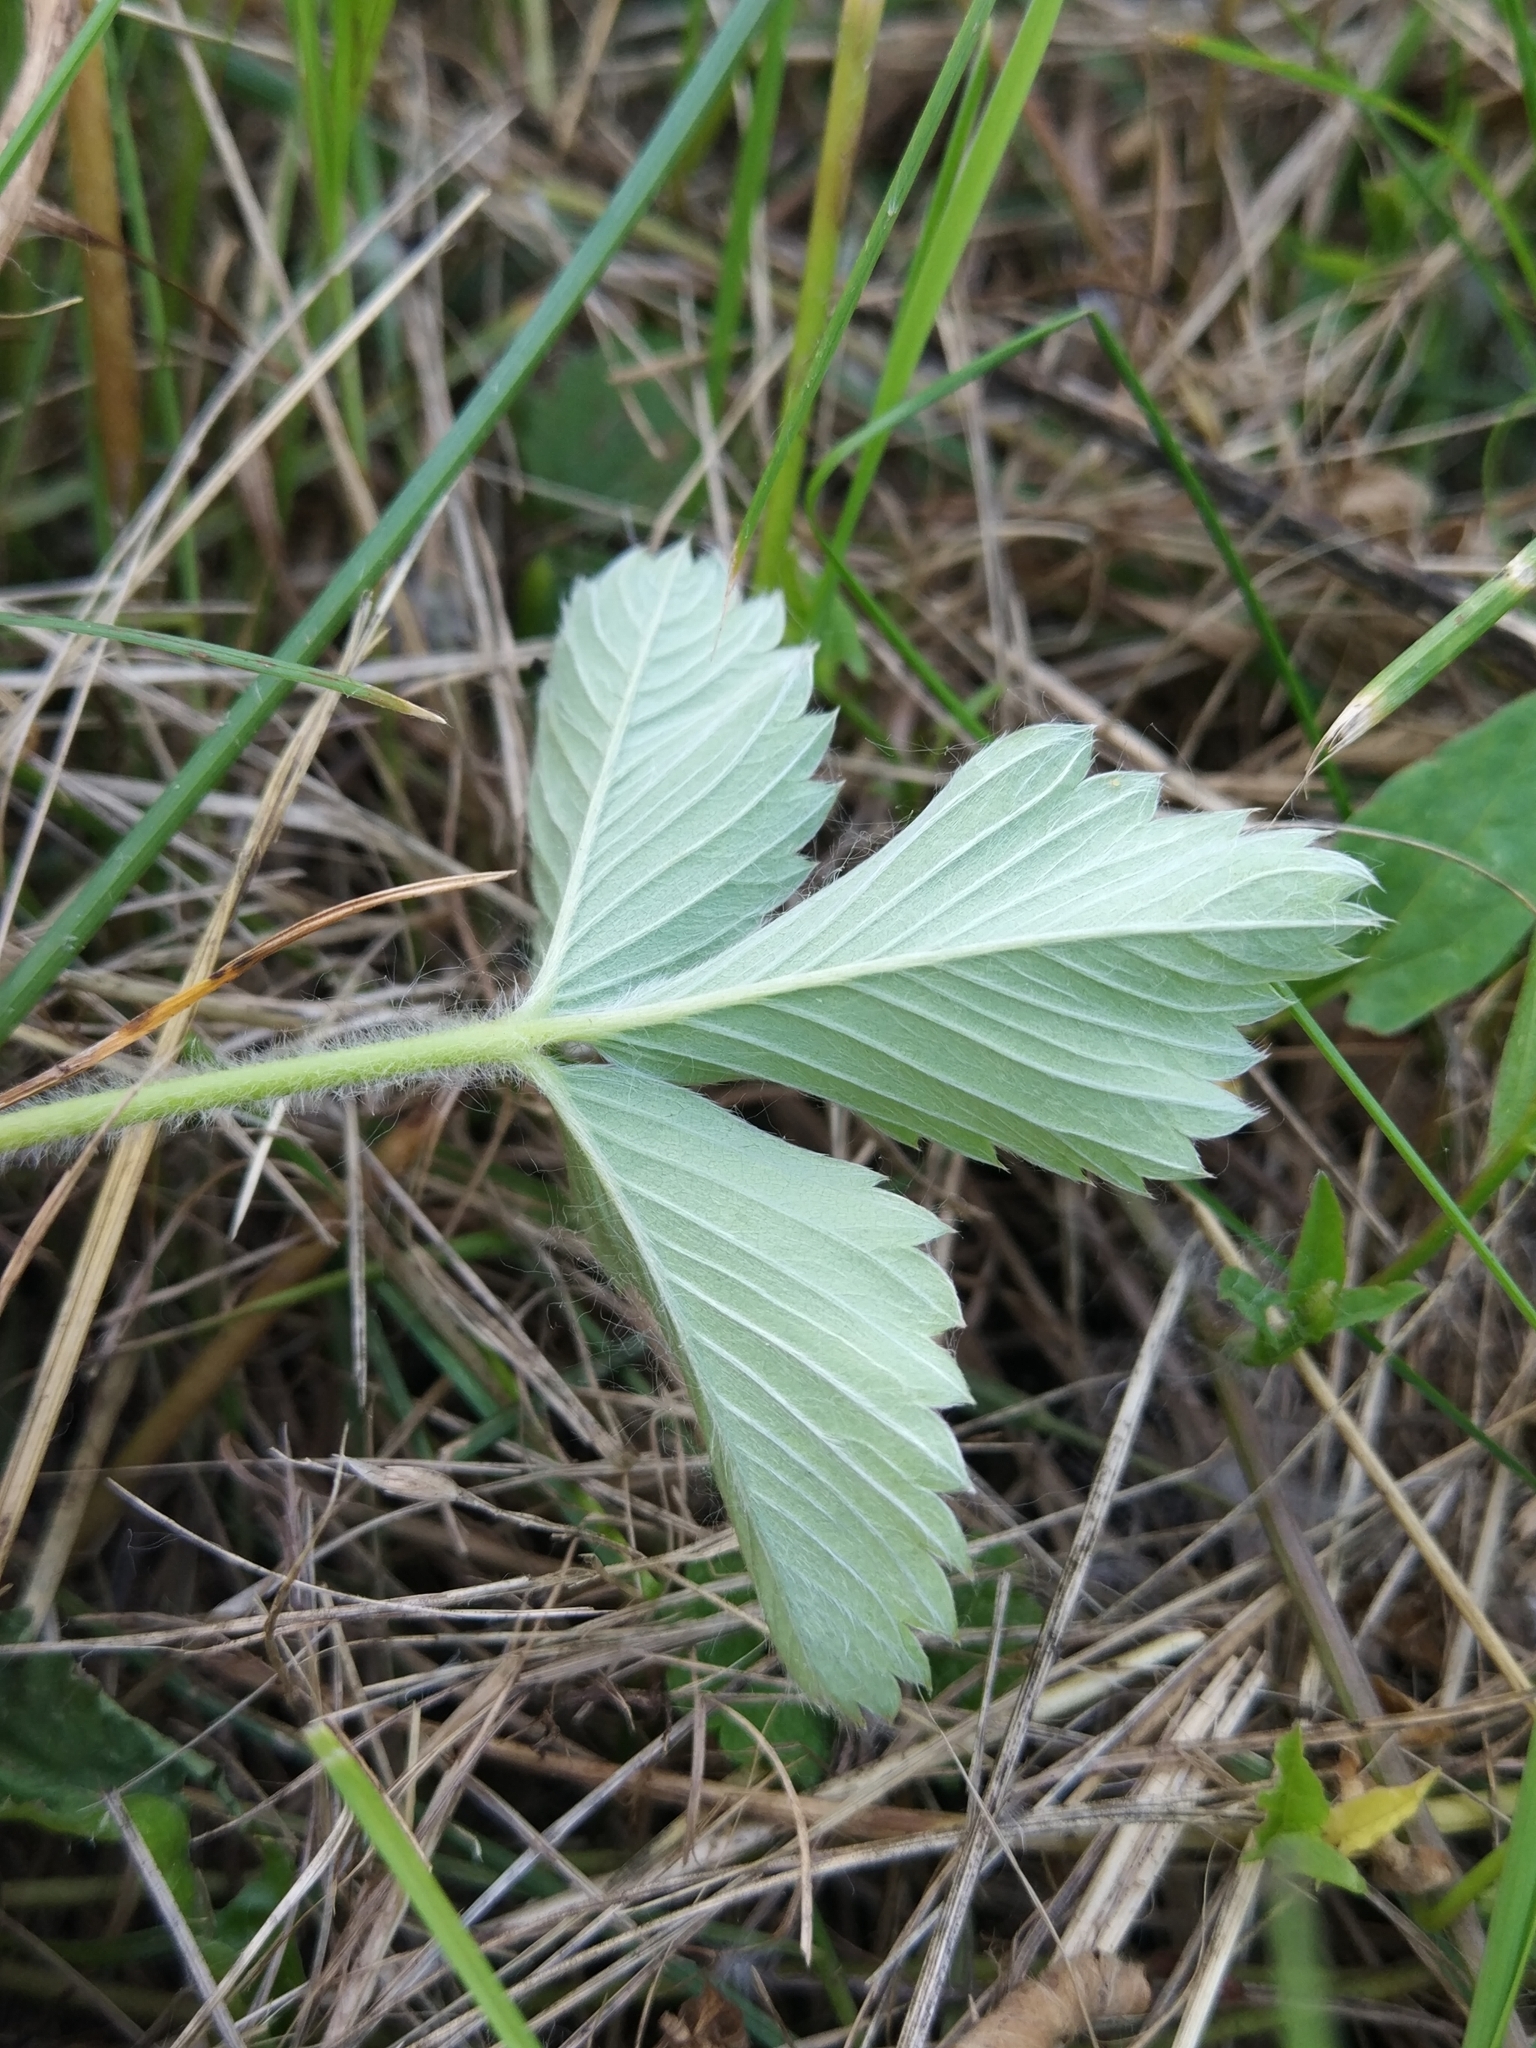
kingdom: Plantae
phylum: Tracheophyta
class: Magnoliopsida
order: Rosales
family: Rosaceae
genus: Fragaria
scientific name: Fragaria viridis
